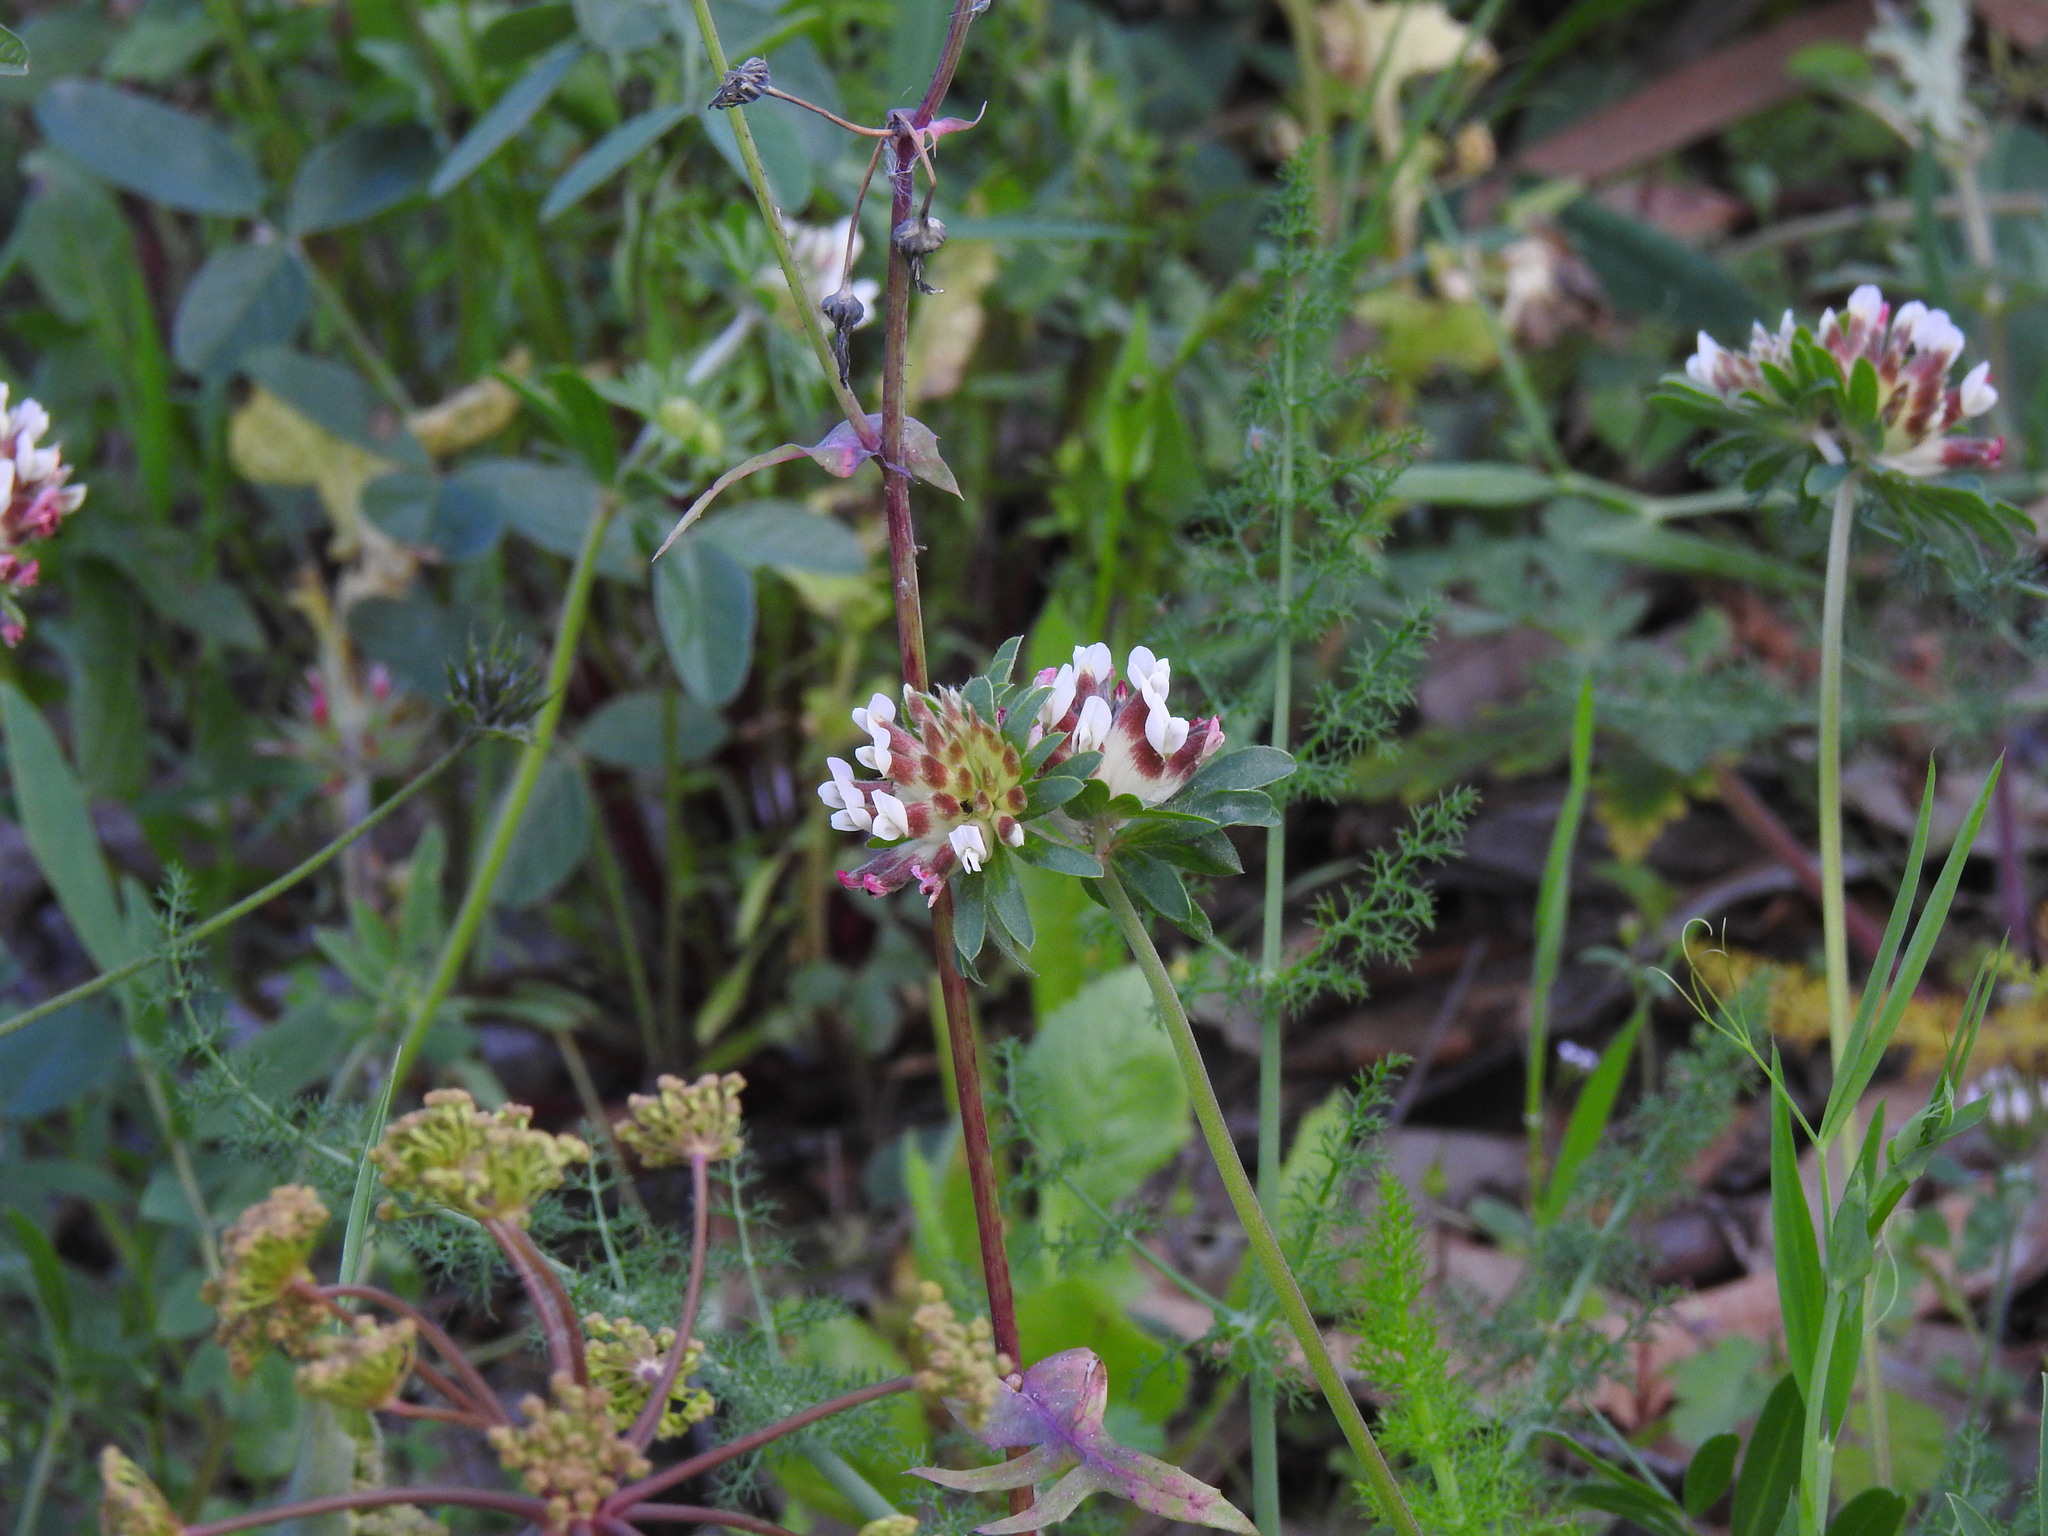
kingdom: Plantae
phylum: Tracheophyta
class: Magnoliopsida
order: Fabales
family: Fabaceae
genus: Anthyllis
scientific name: Anthyllis vulneraria
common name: Kidney vetch
